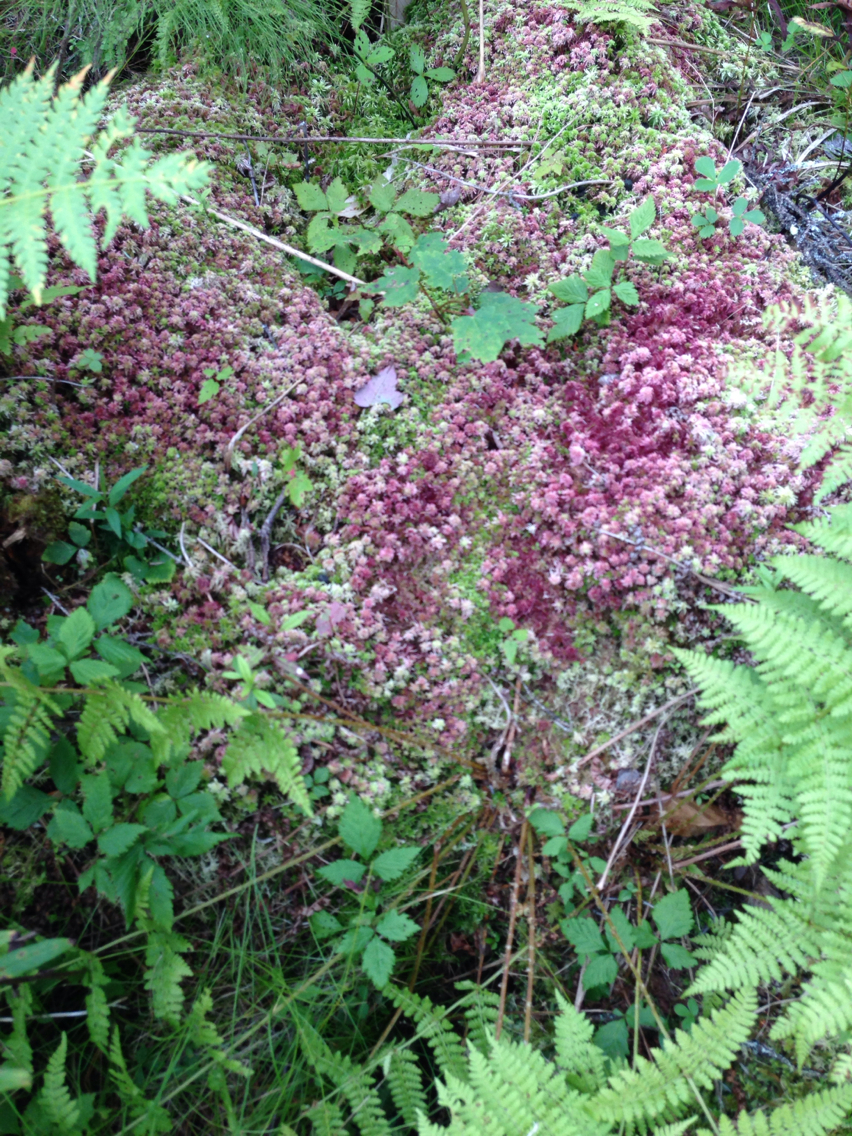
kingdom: Plantae
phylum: Tracheophyta
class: Magnoliopsida
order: Rosales
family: Rosaceae
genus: Rubus
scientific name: Rubus pubescens
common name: Dwarf raspberry
